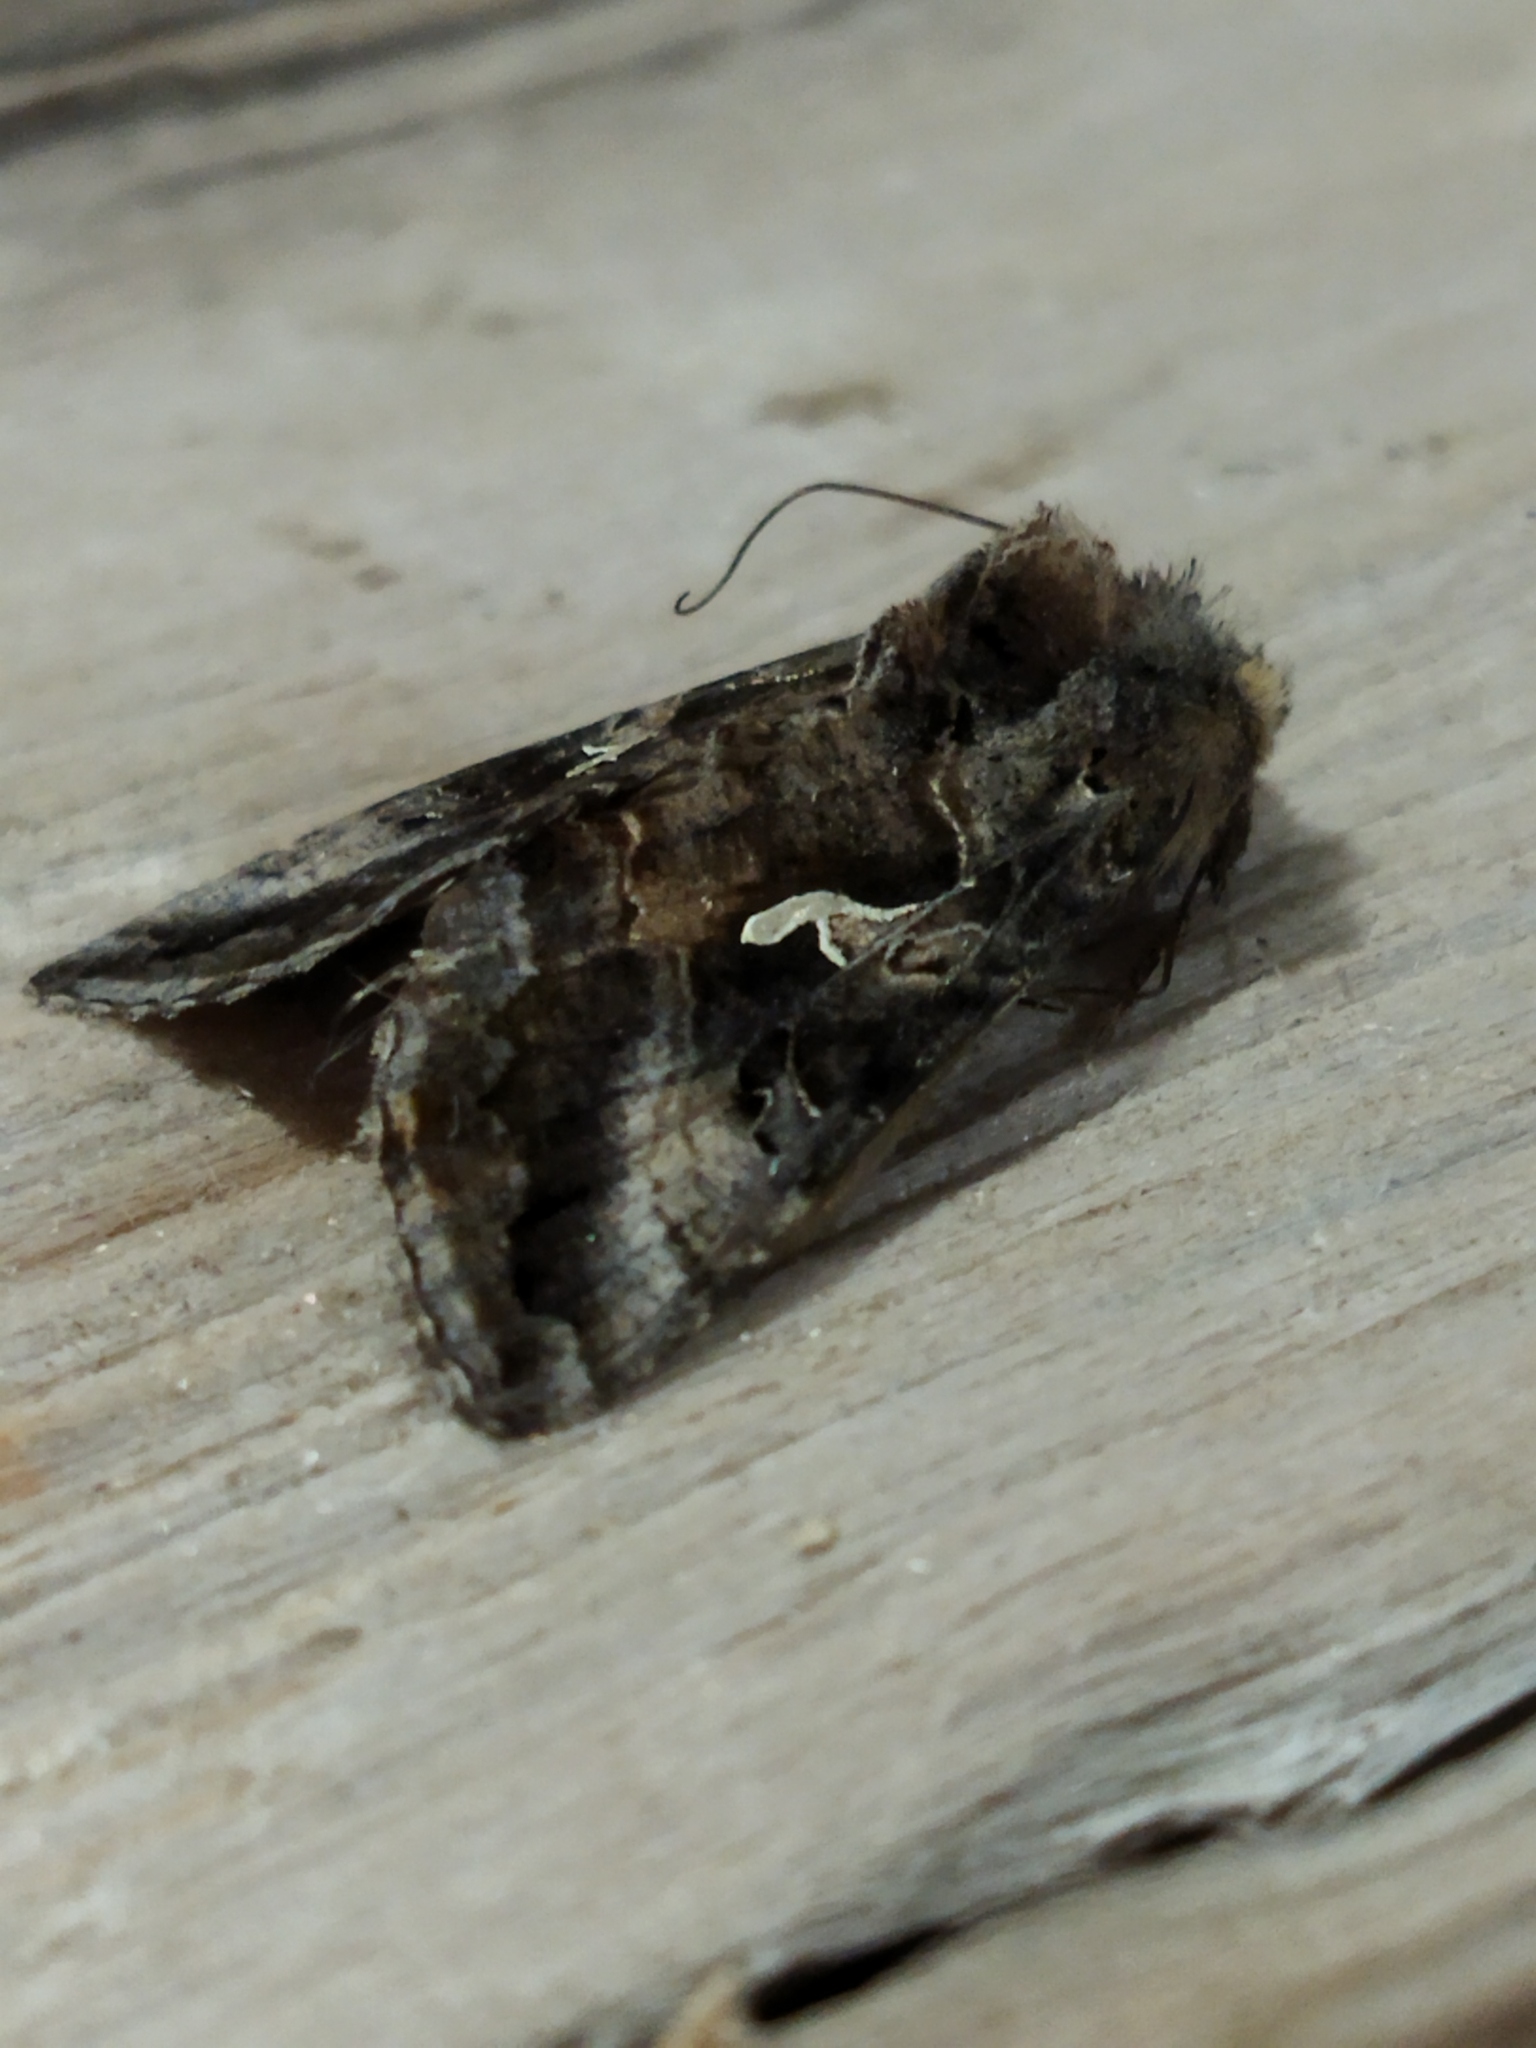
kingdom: Animalia
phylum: Arthropoda
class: Insecta
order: Lepidoptera
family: Noctuidae
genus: Autographa
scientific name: Autographa gamma
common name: Silver y
